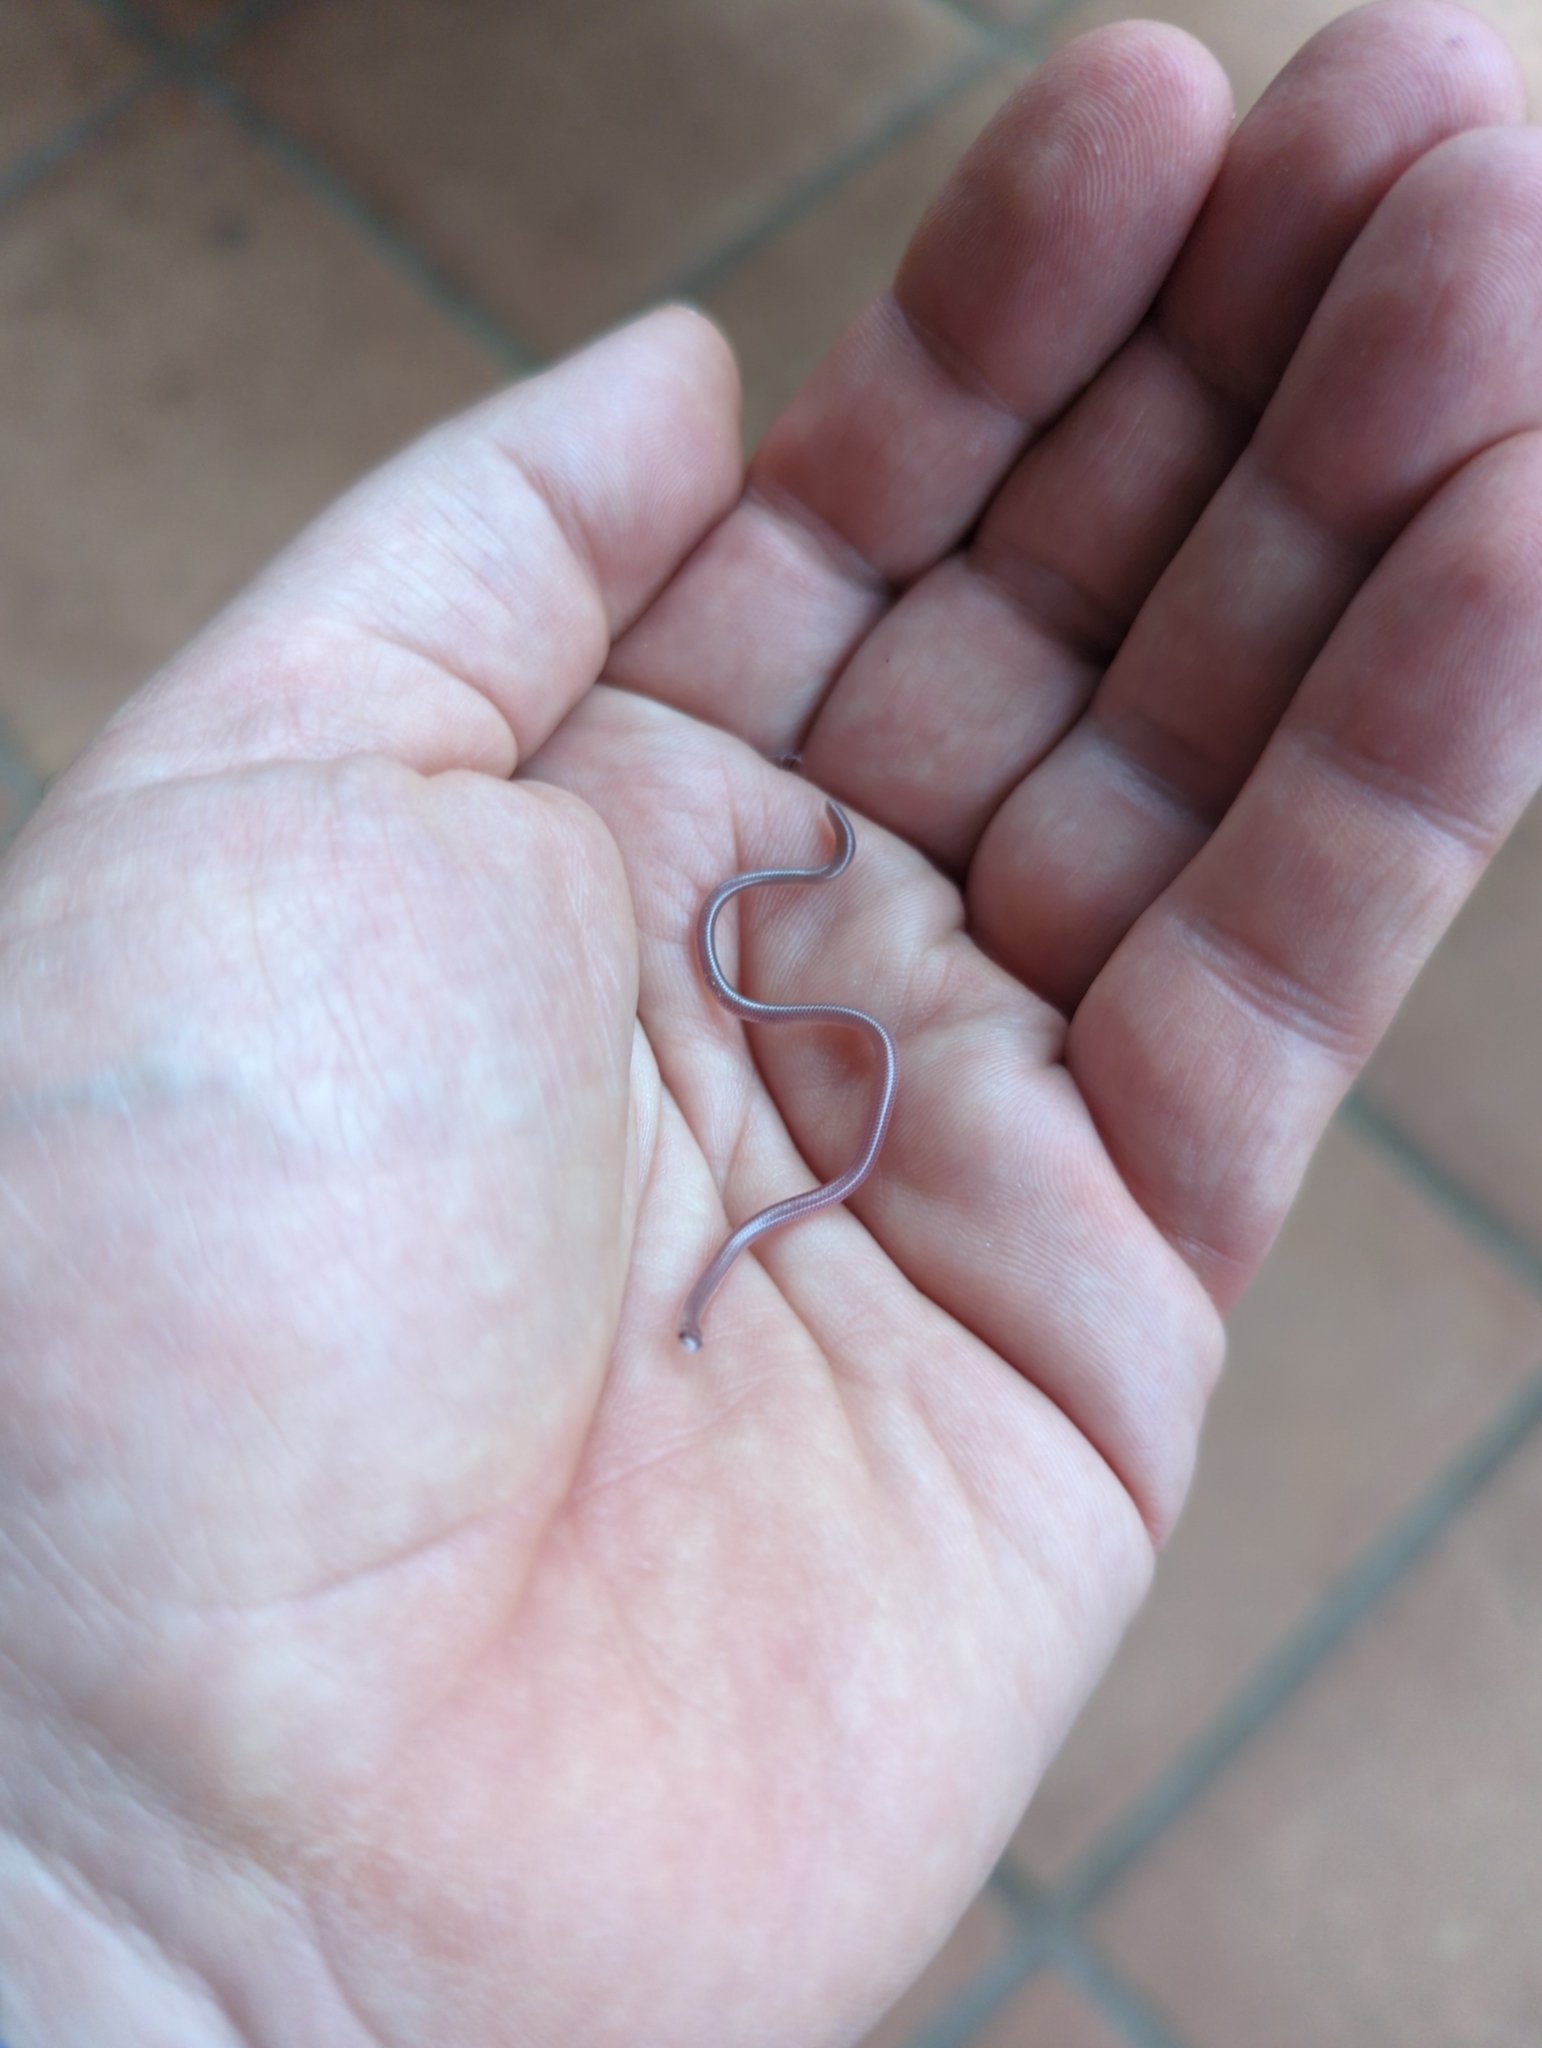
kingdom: Animalia
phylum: Chordata
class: Squamata
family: Leptotyphlopidae
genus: Rena
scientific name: Rena dulcis
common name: Texas blind snake
